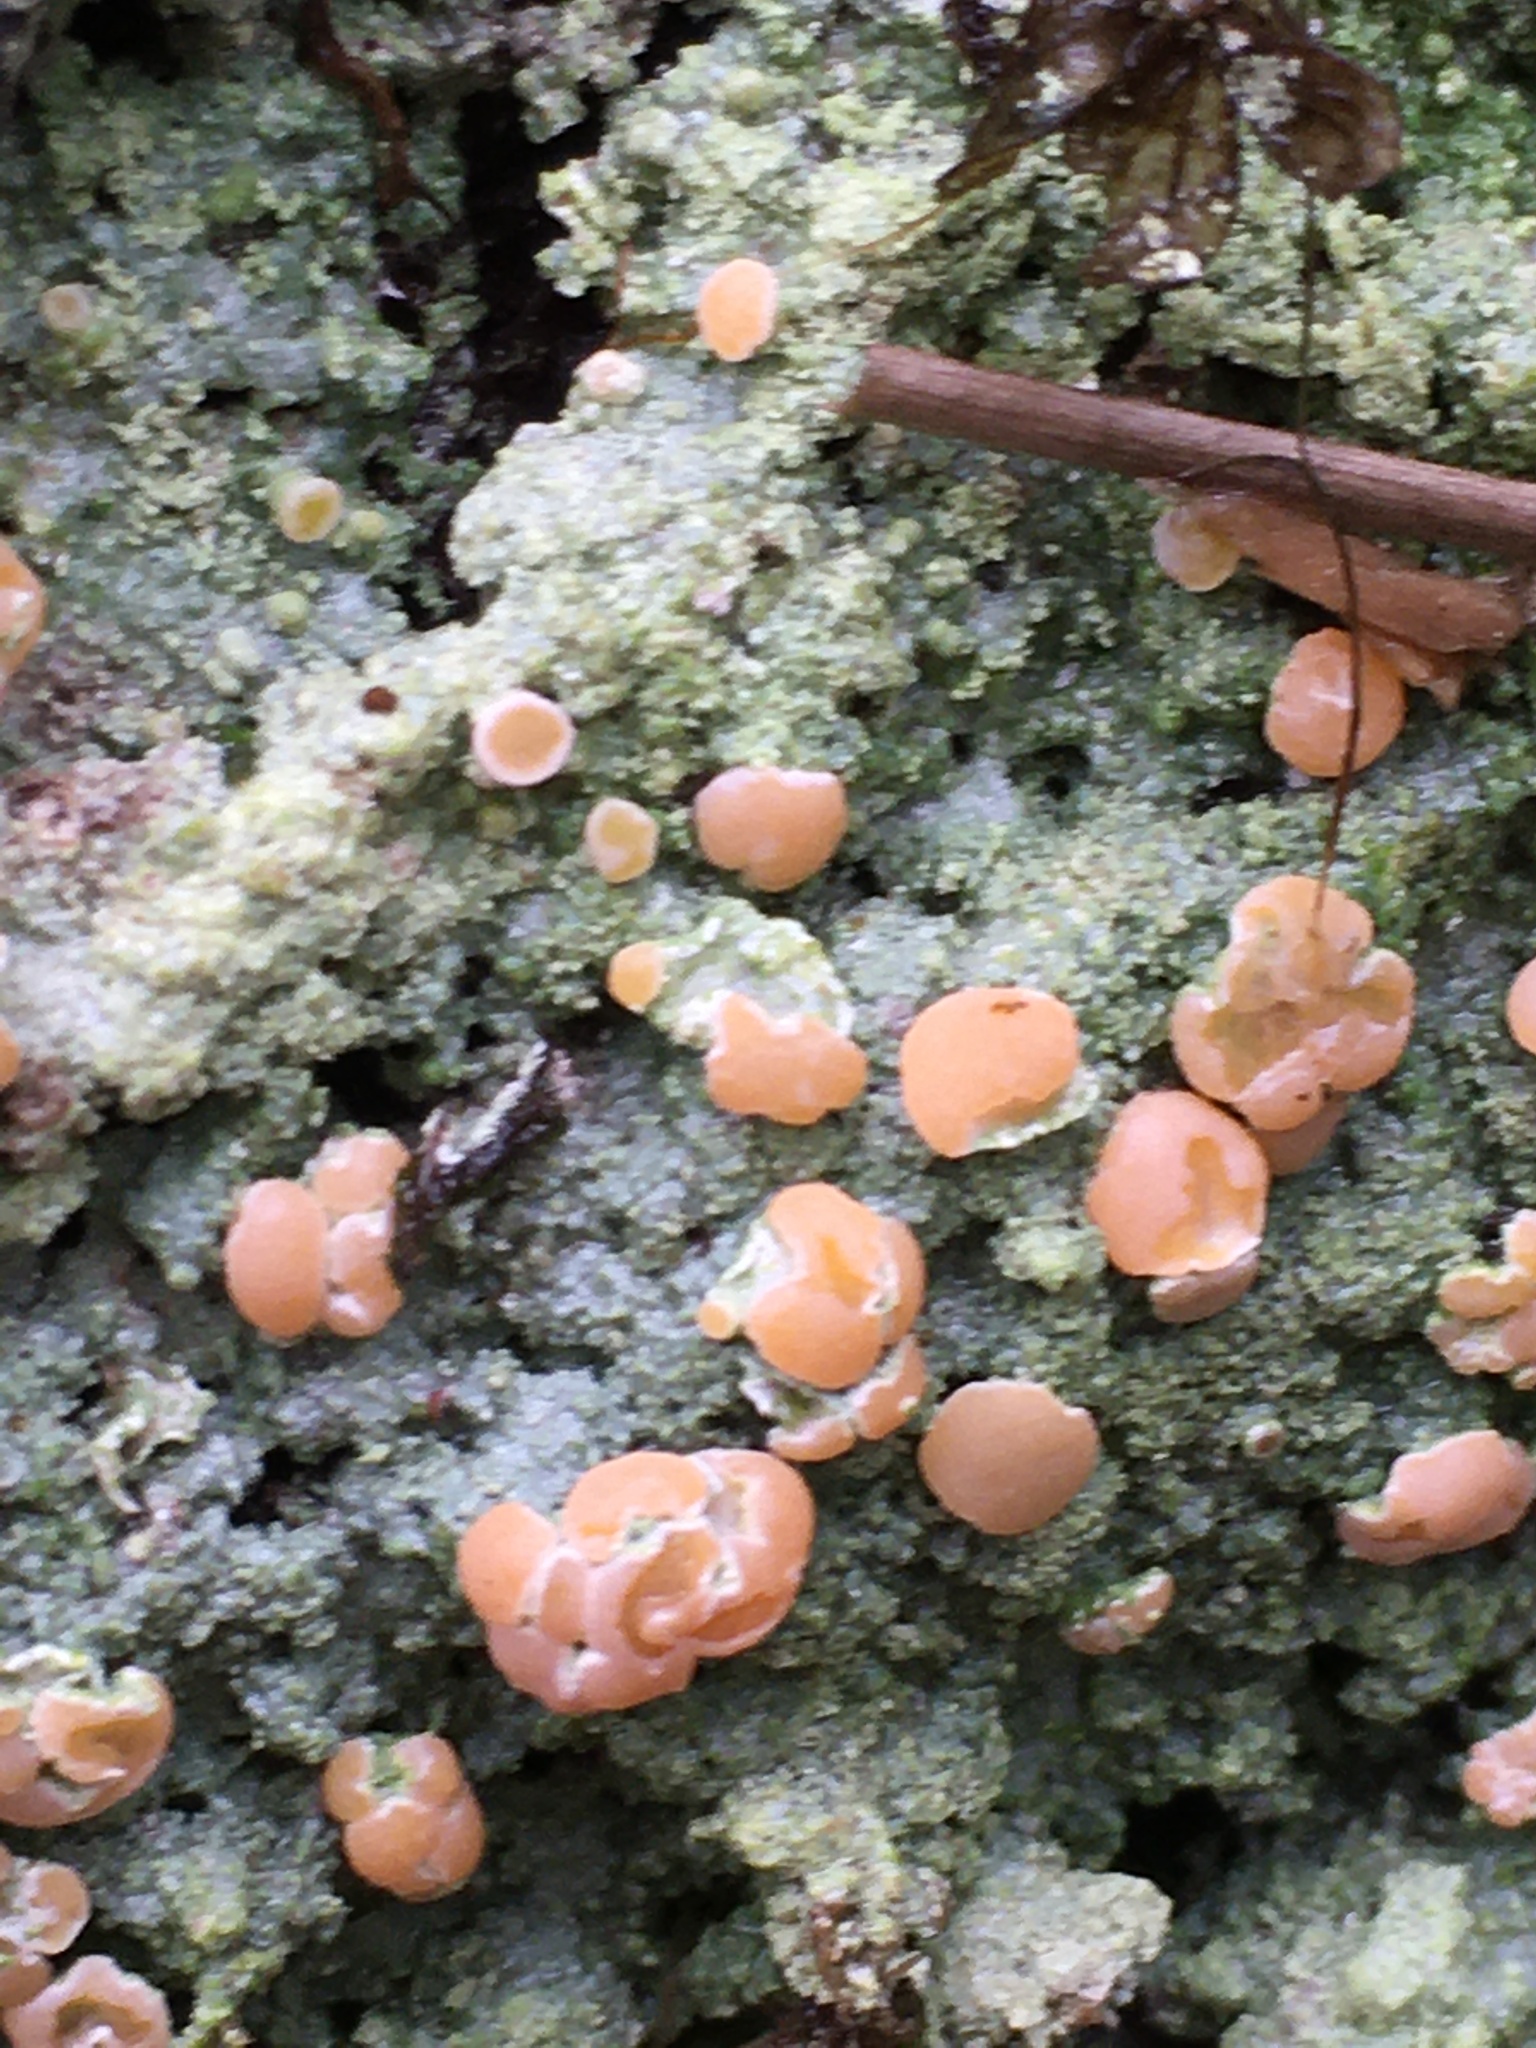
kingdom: Fungi
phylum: Ascomycota
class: Lecanoromycetes
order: Pertusariales
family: Icmadophilaceae
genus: Icmadophila
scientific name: Icmadophila ericetorum
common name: Candy lichen
